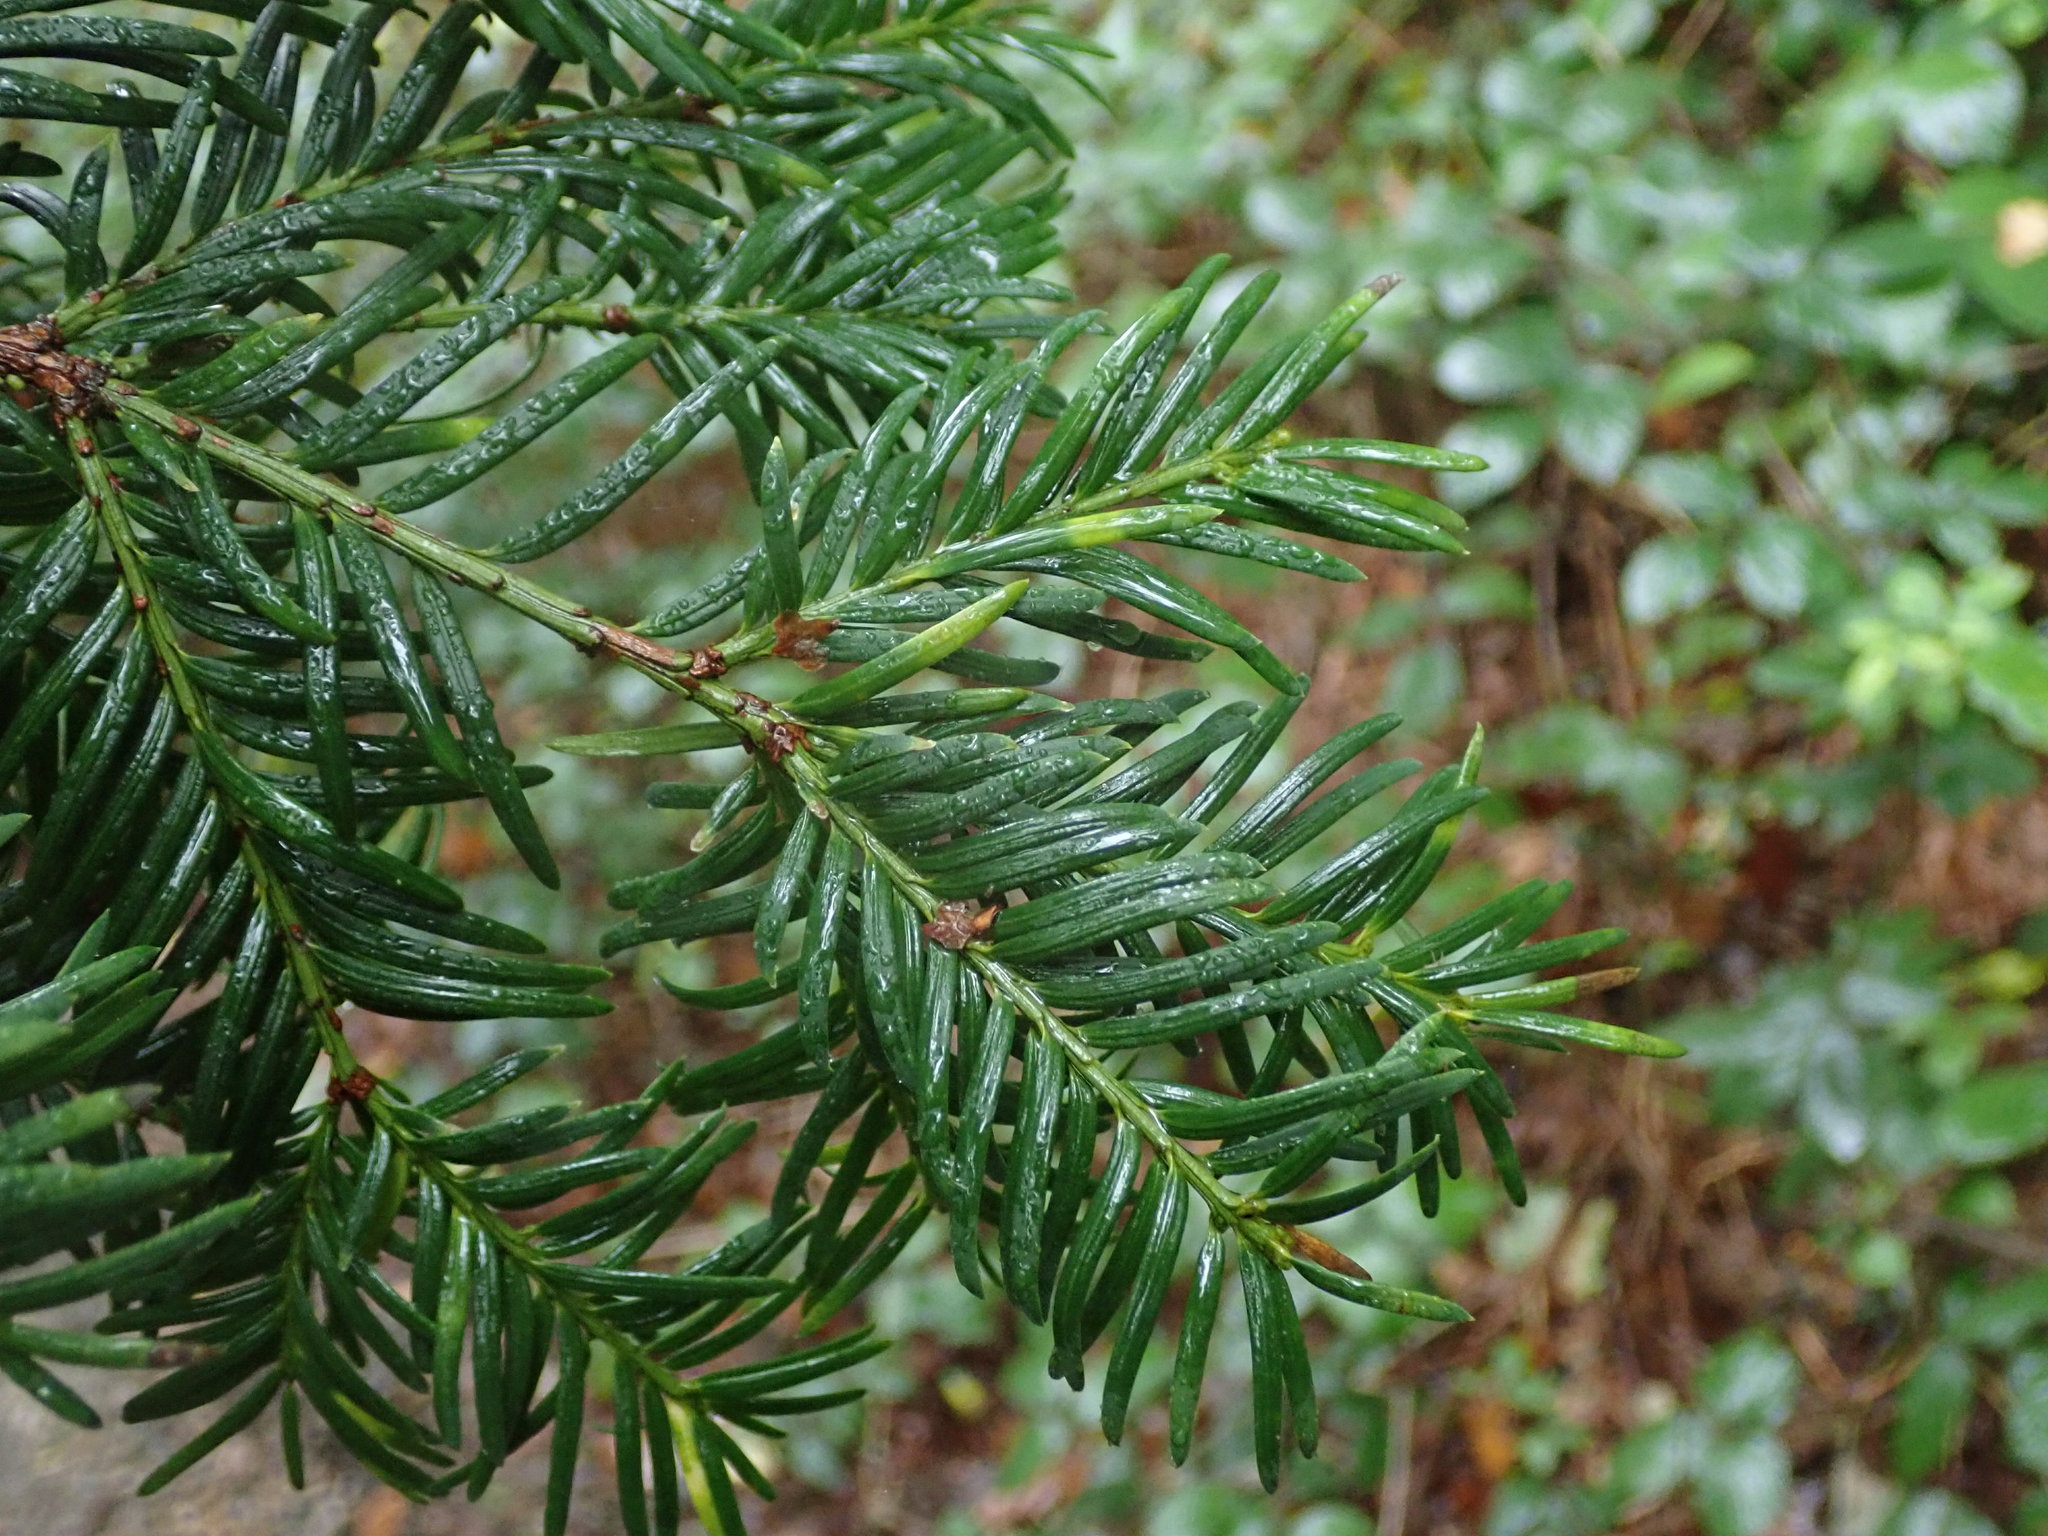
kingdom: Plantae
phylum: Tracheophyta
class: Pinopsida
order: Pinales
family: Taxaceae
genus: Taxus
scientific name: Taxus baccata
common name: Yew
